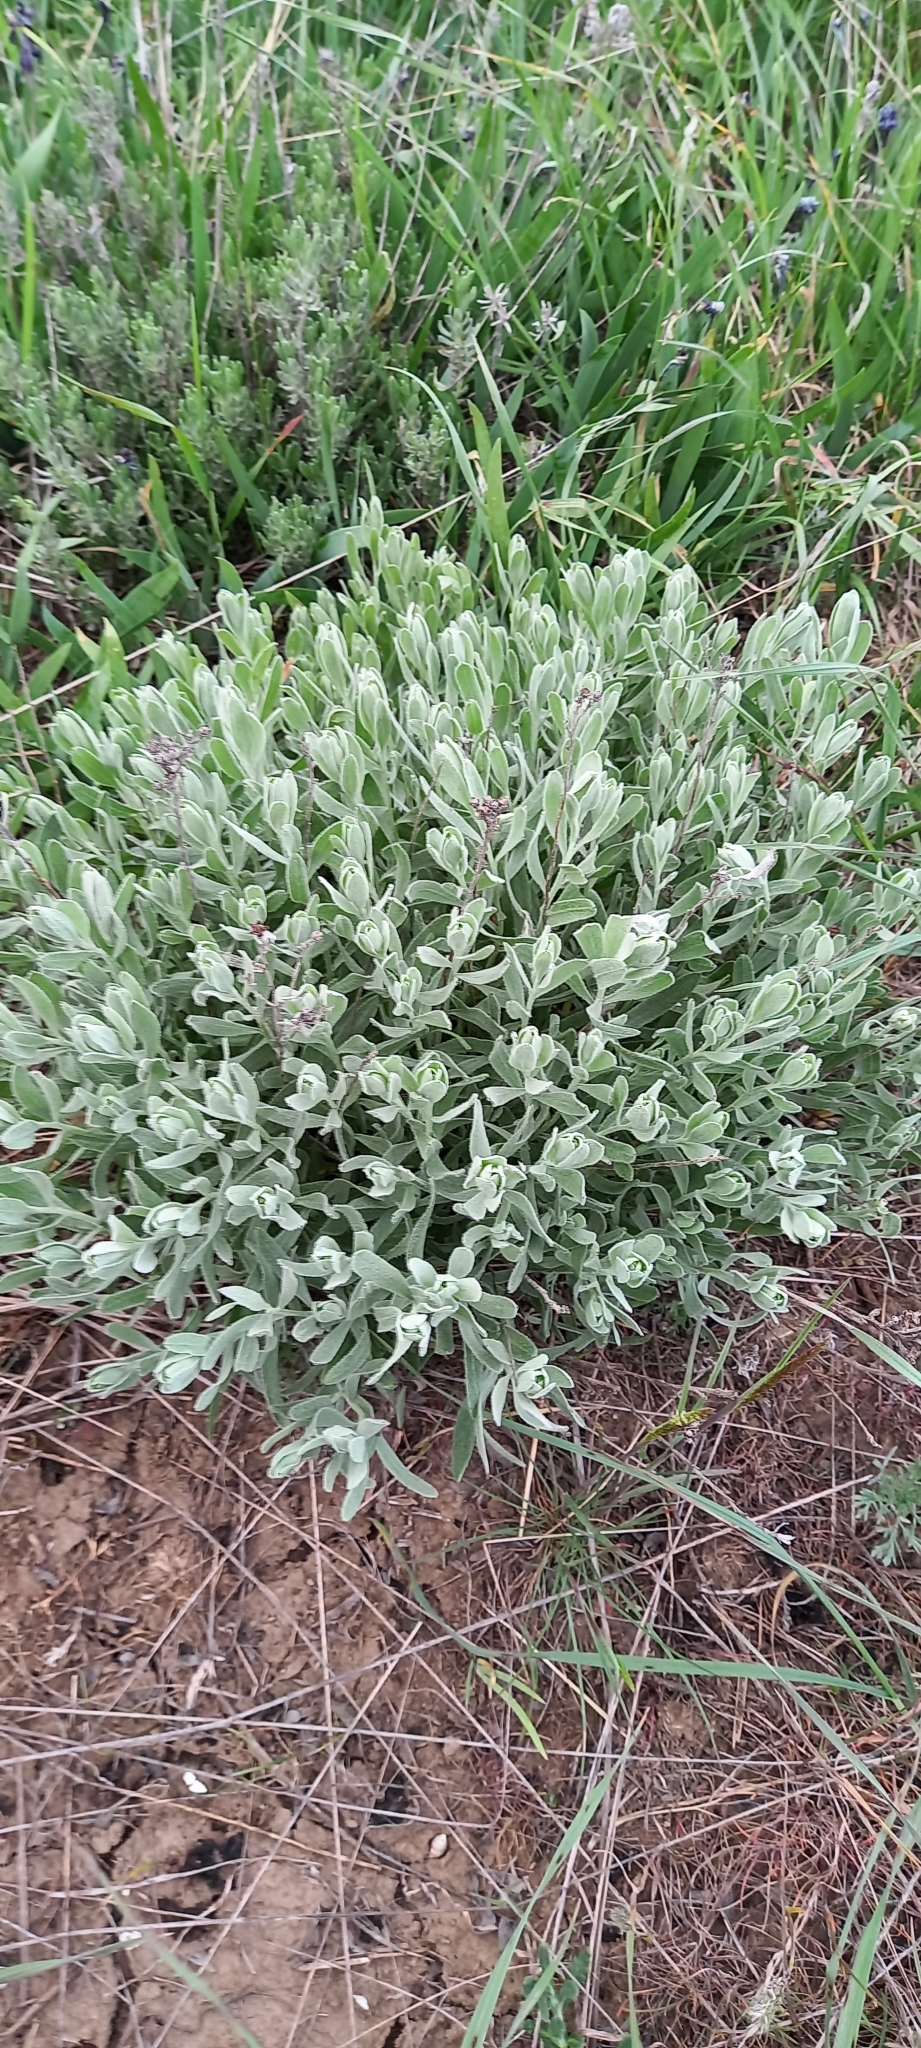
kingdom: Plantae
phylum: Tracheophyta
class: Magnoliopsida
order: Asterales
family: Asteraceae
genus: Galatella
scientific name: Galatella villosa
